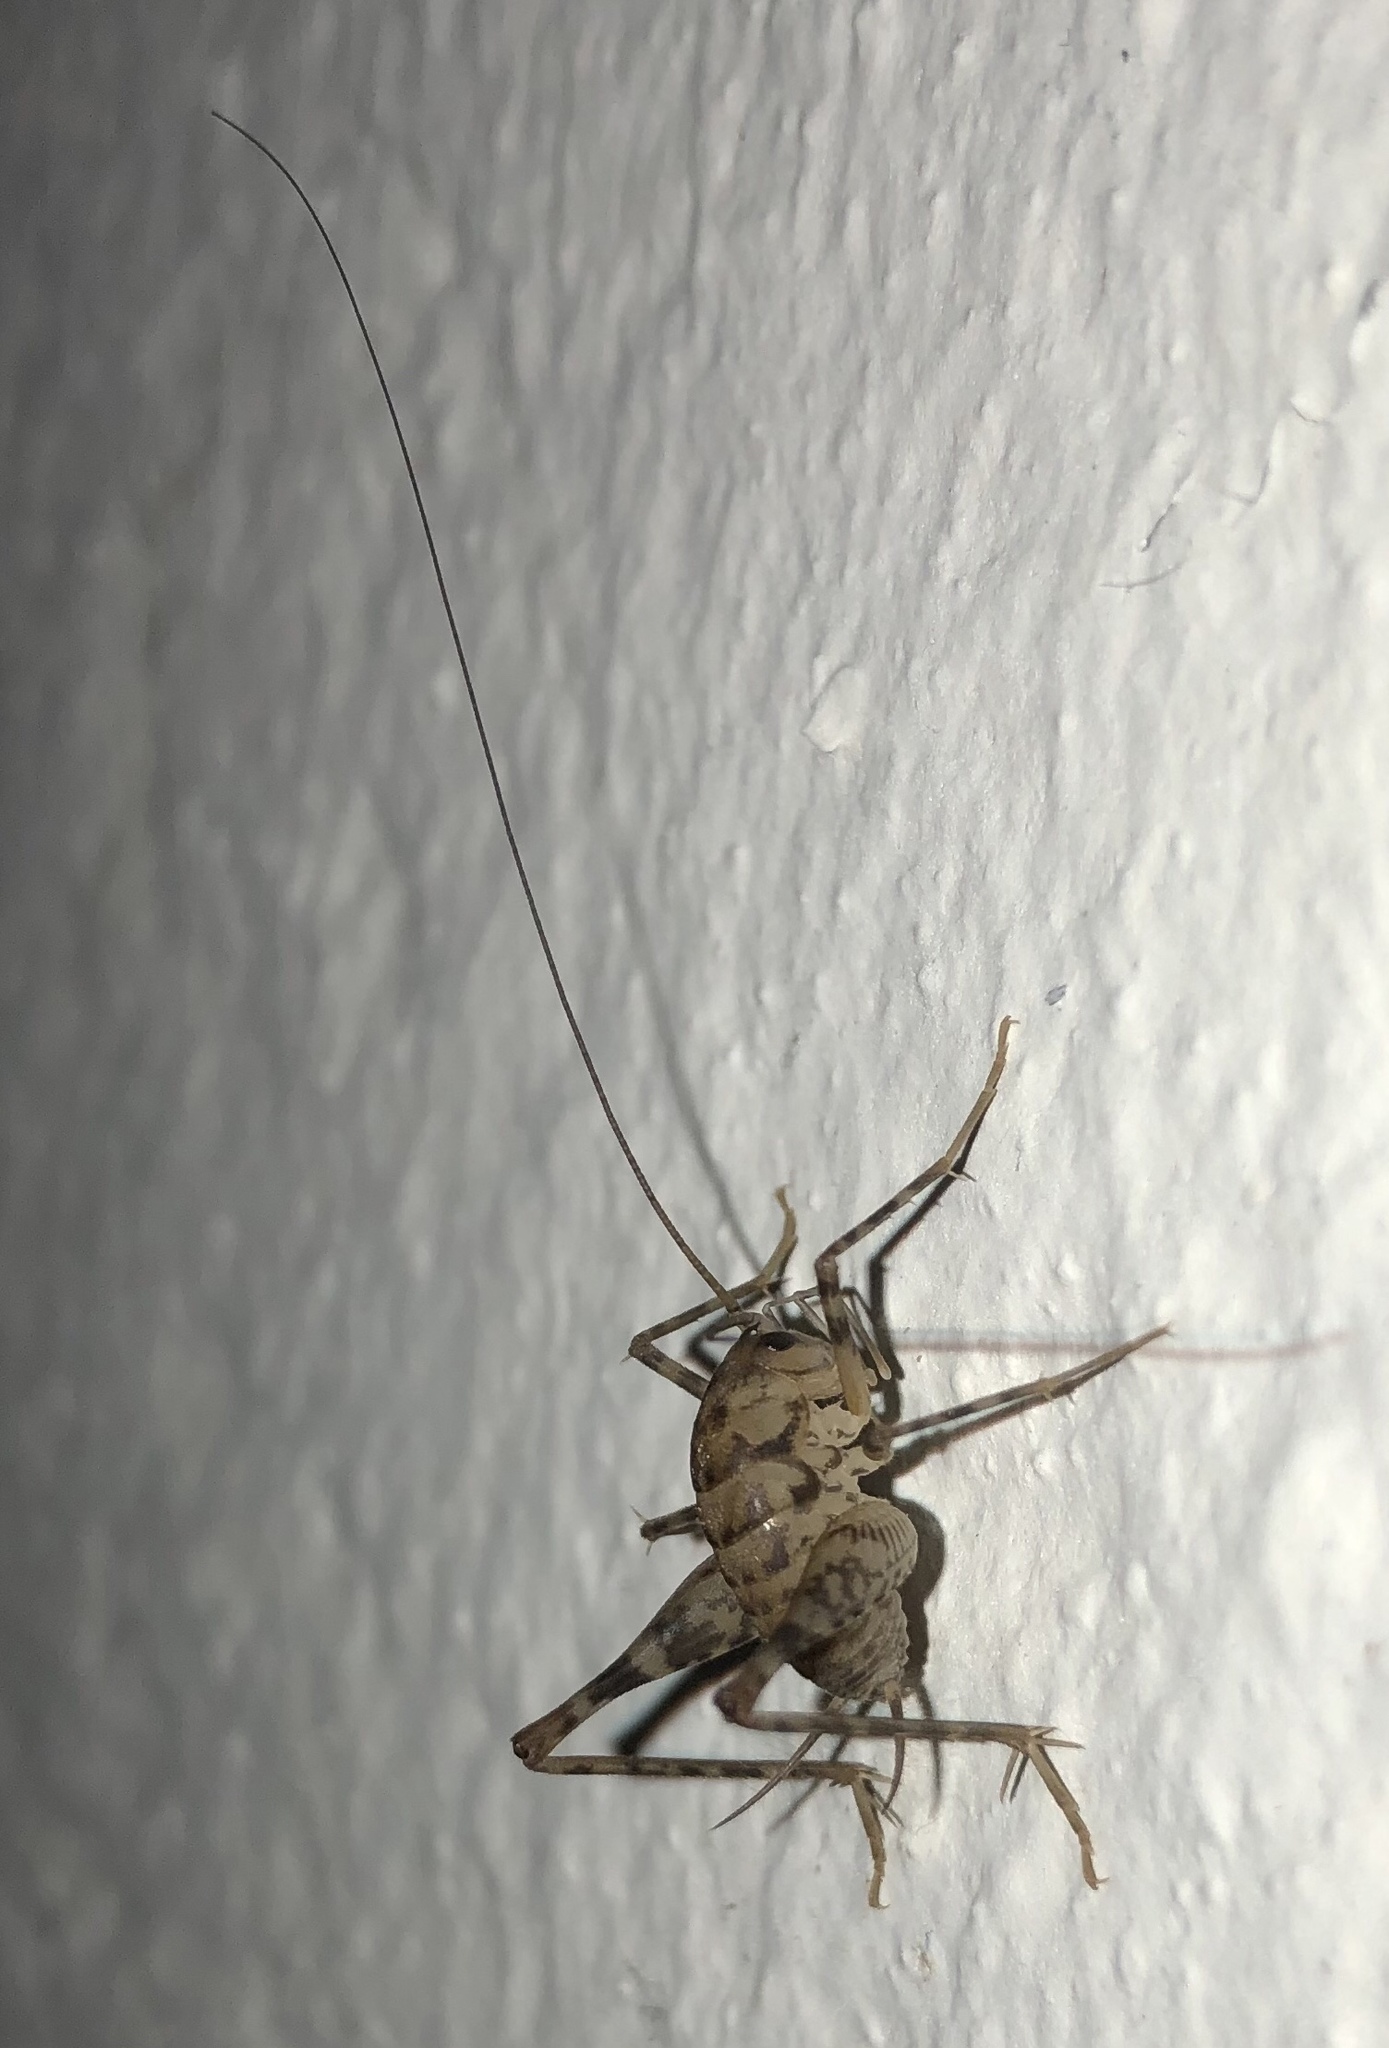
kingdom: Animalia
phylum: Arthropoda
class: Insecta
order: Orthoptera
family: Rhaphidophoridae
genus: Tachycines
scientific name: Tachycines asynamorus
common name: Greenhouse camel cricket
